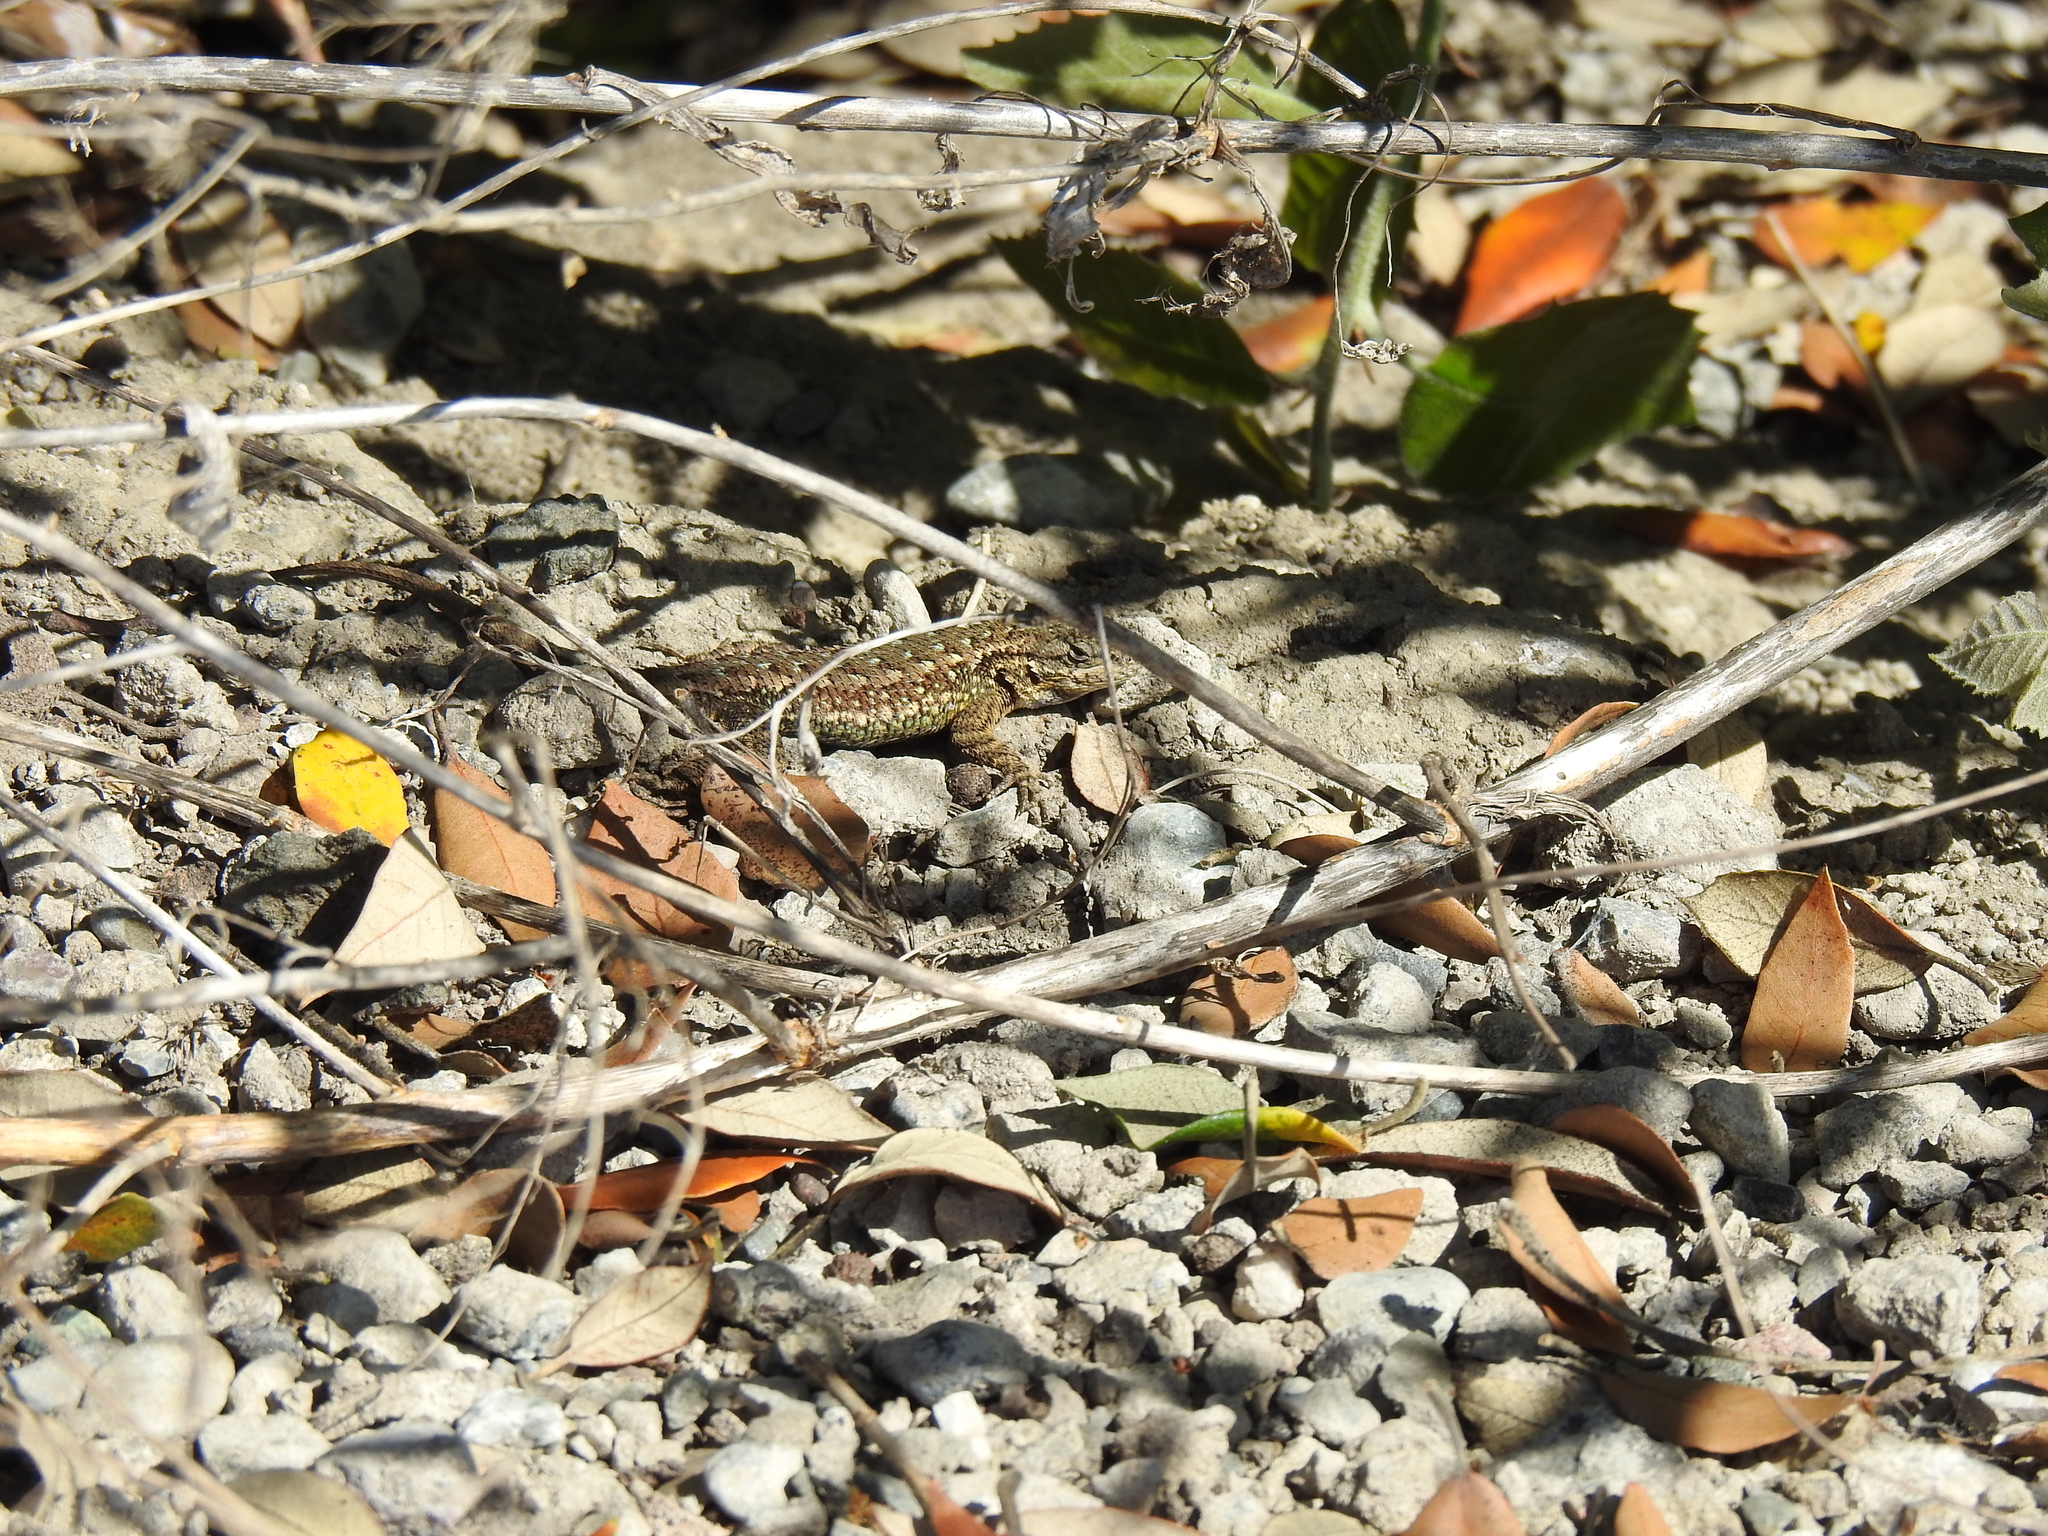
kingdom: Animalia
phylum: Chordata
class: Squamata
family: Phrynosomatidae
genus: Sceloporus
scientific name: Sceloporus occidentalis
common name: Western fence lizard
